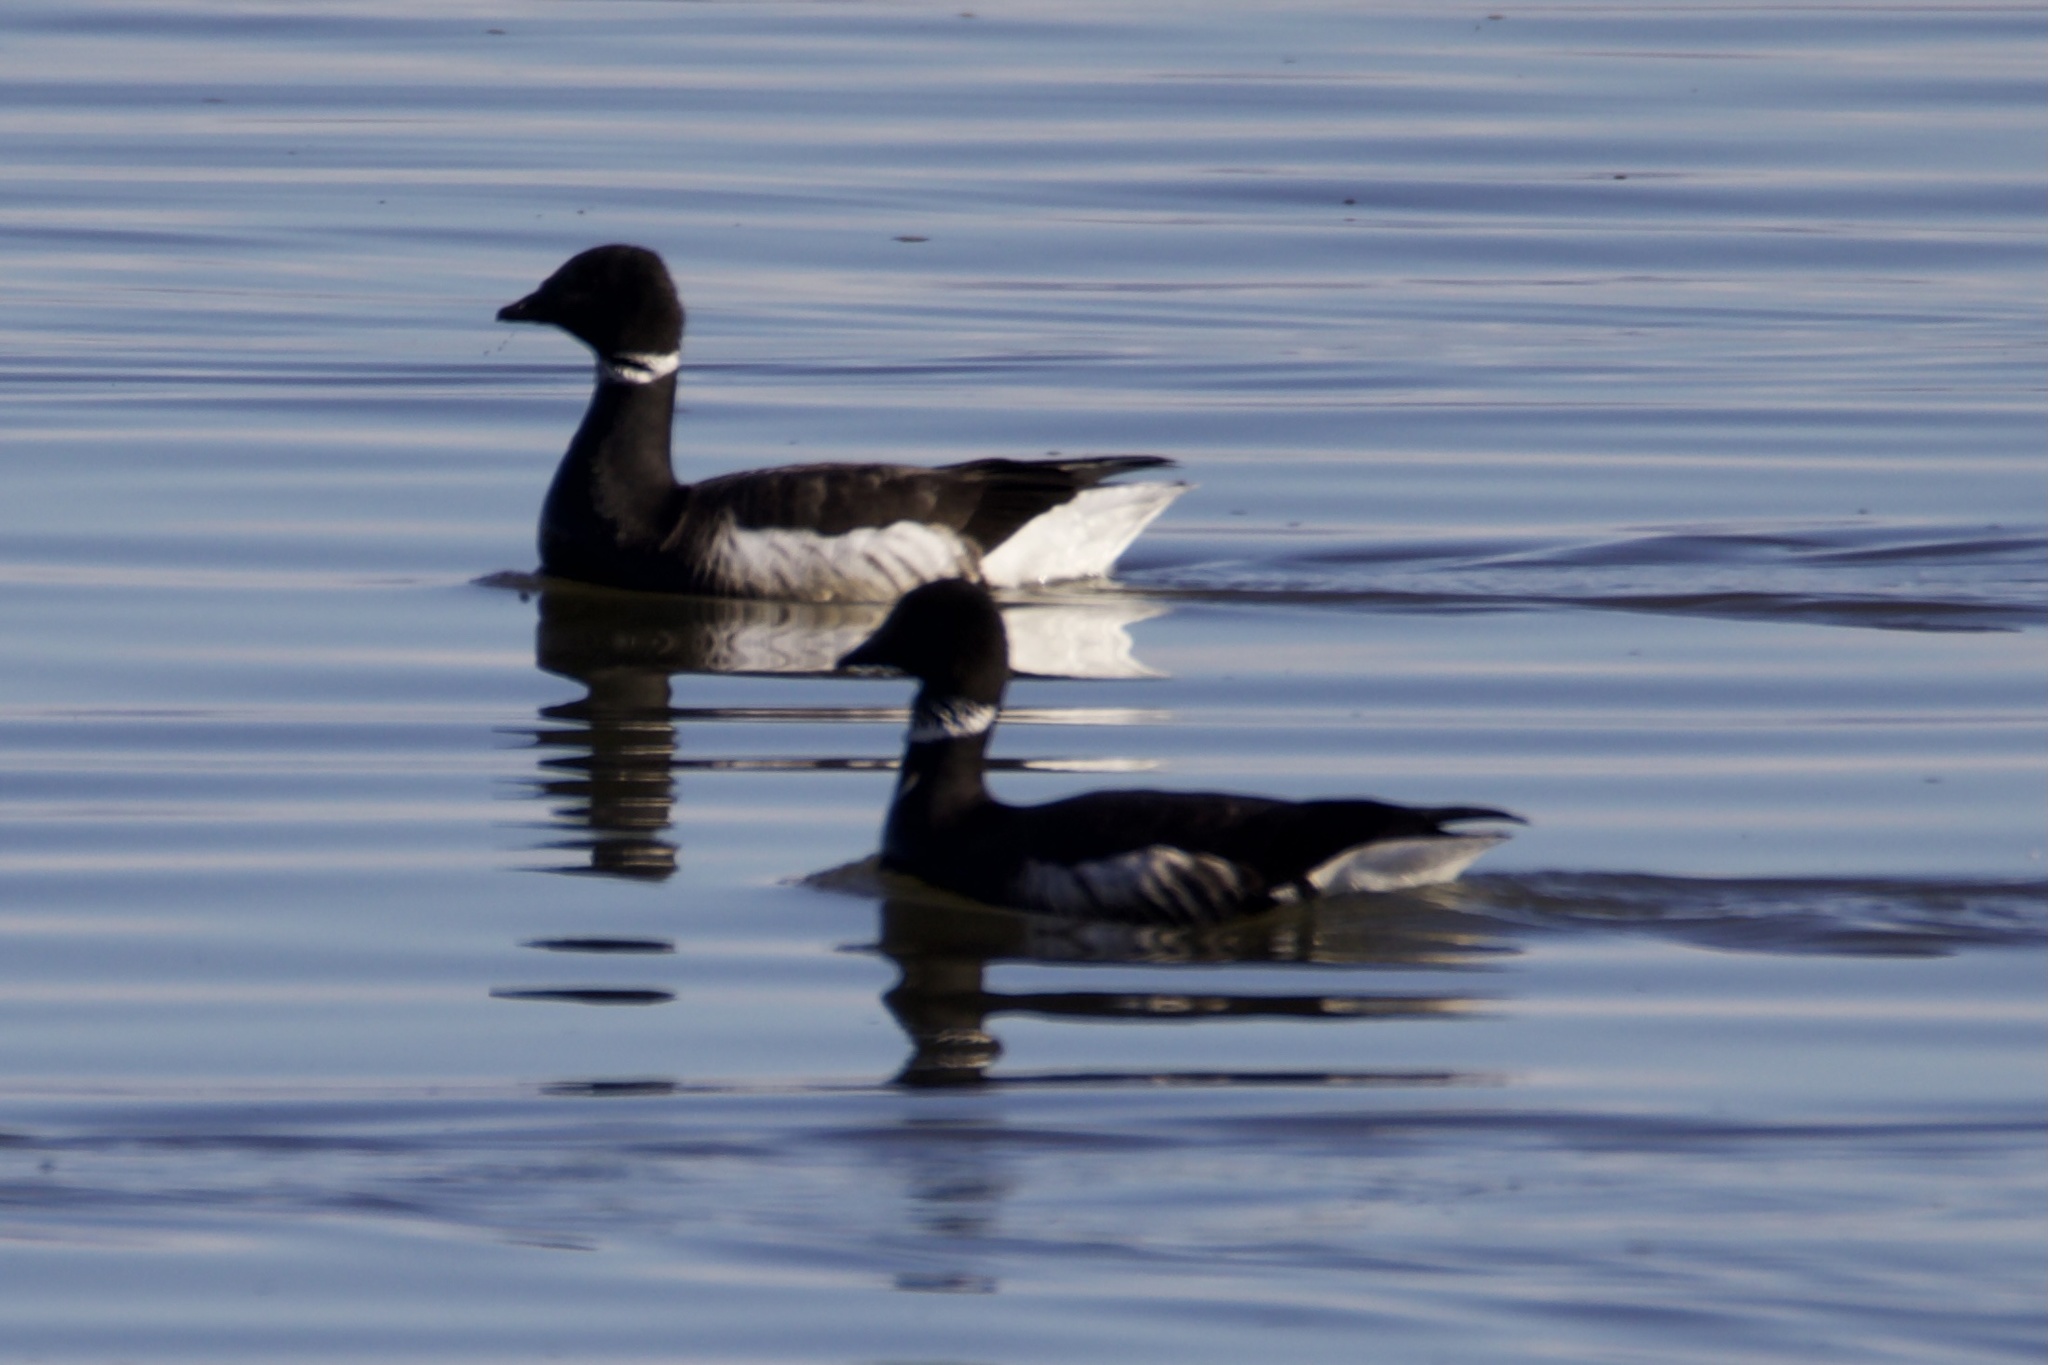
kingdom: Animalia
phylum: Chordata
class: Aves
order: Anseriformes
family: Anatidae
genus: Branta
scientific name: Branta bernicla
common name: Brant goose
